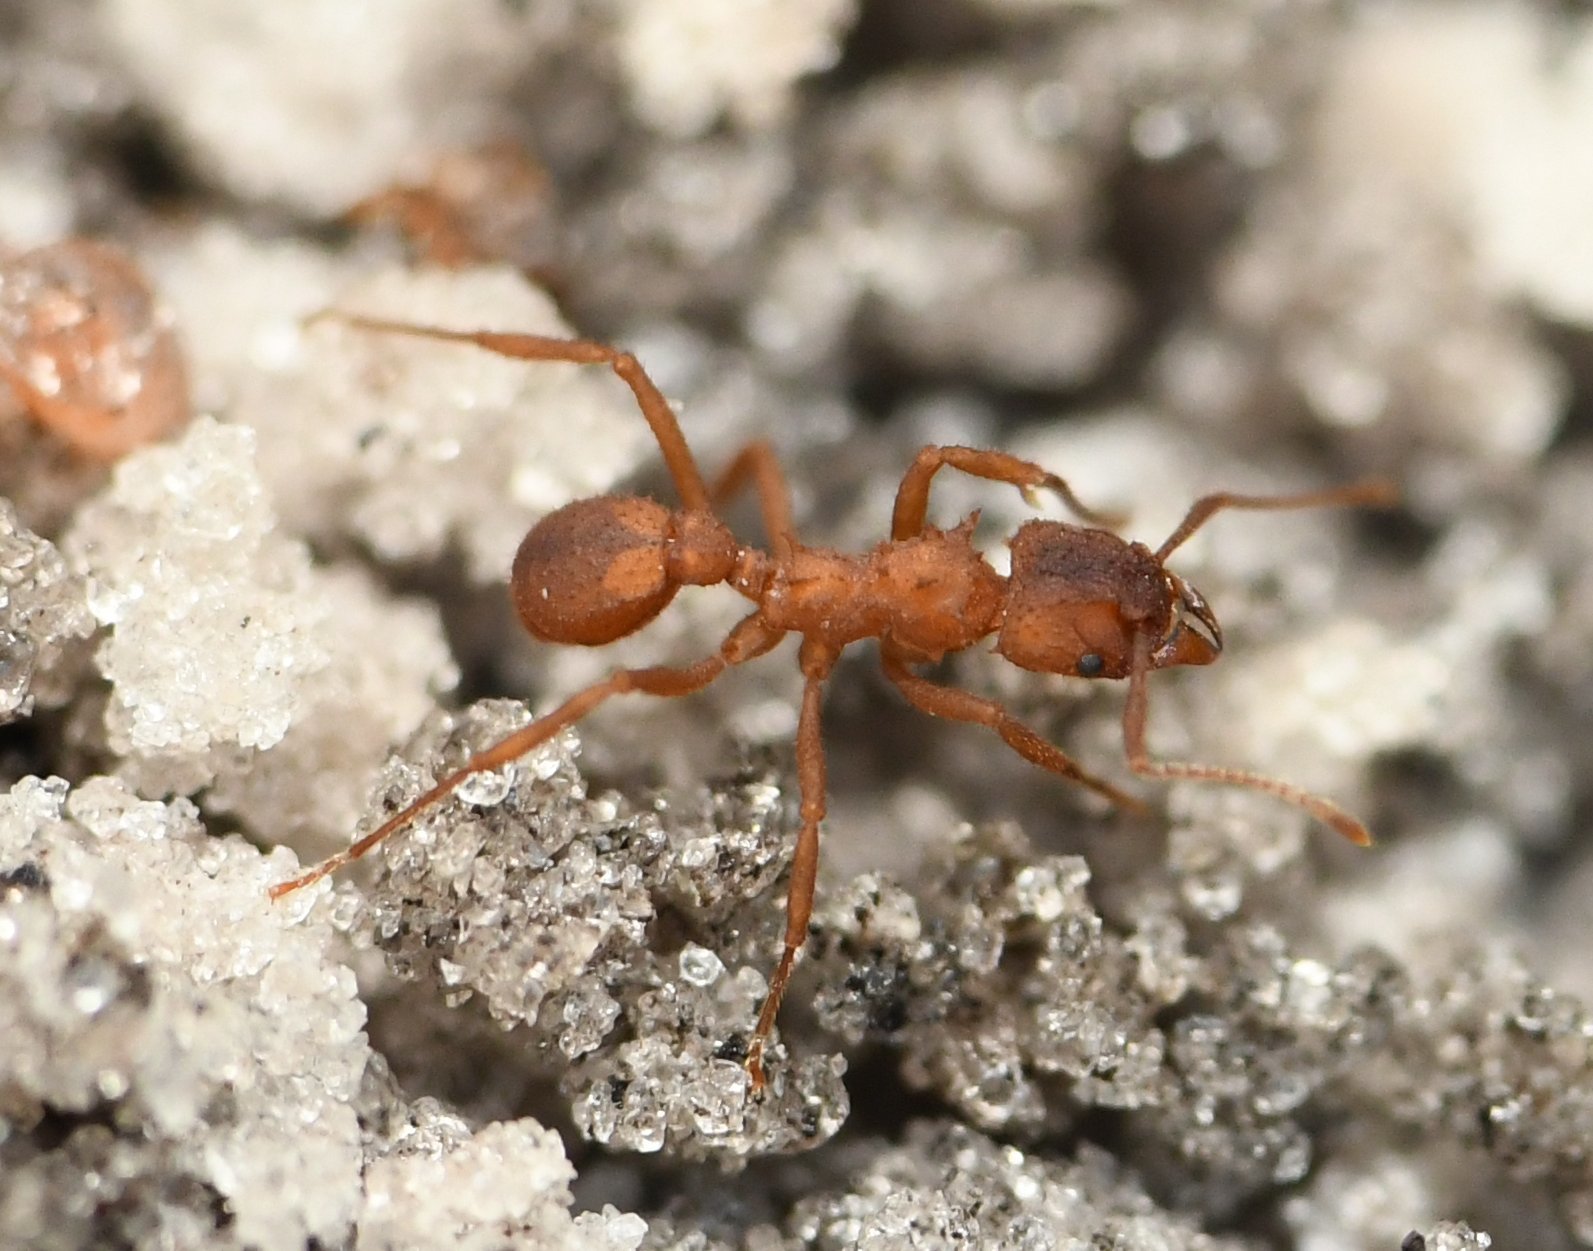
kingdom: Animalia
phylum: Arthropoda
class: Insecta
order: Hymenoptera
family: Formicidae
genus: Trachymyrmex
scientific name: Trachymyrmex septentrionalis
